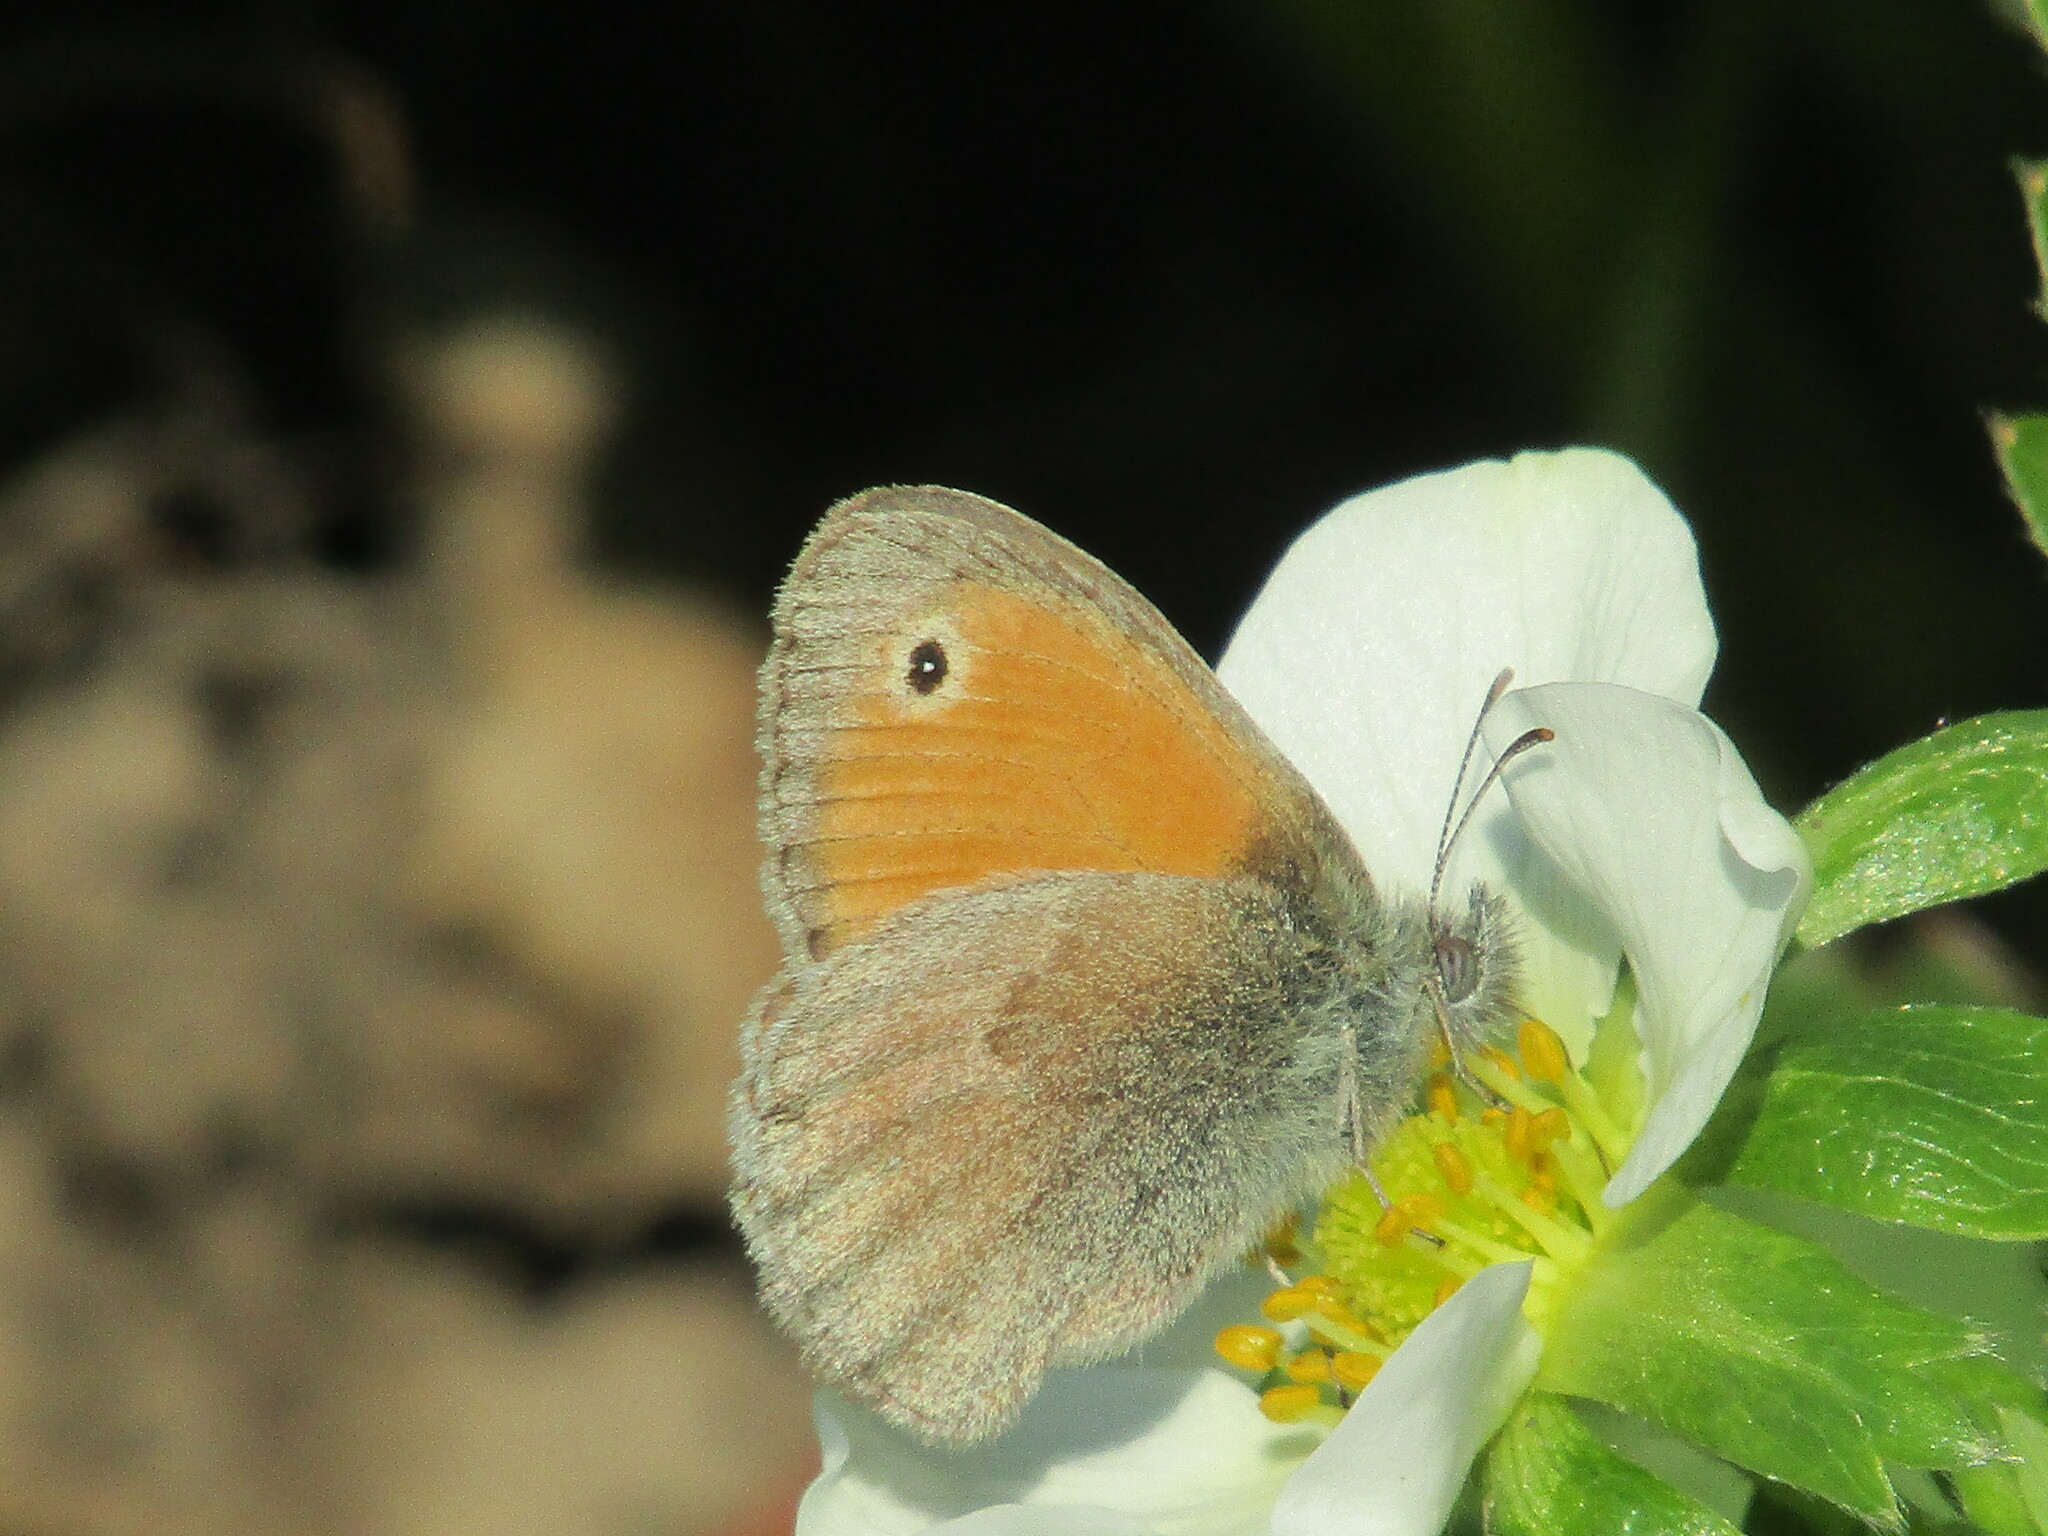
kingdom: Animalia
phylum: Arthropoda
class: Insecta
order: Lepidoptera
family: Nymphalidae
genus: Coenonympha
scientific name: Coenonympha pamphilus
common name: Small heath
